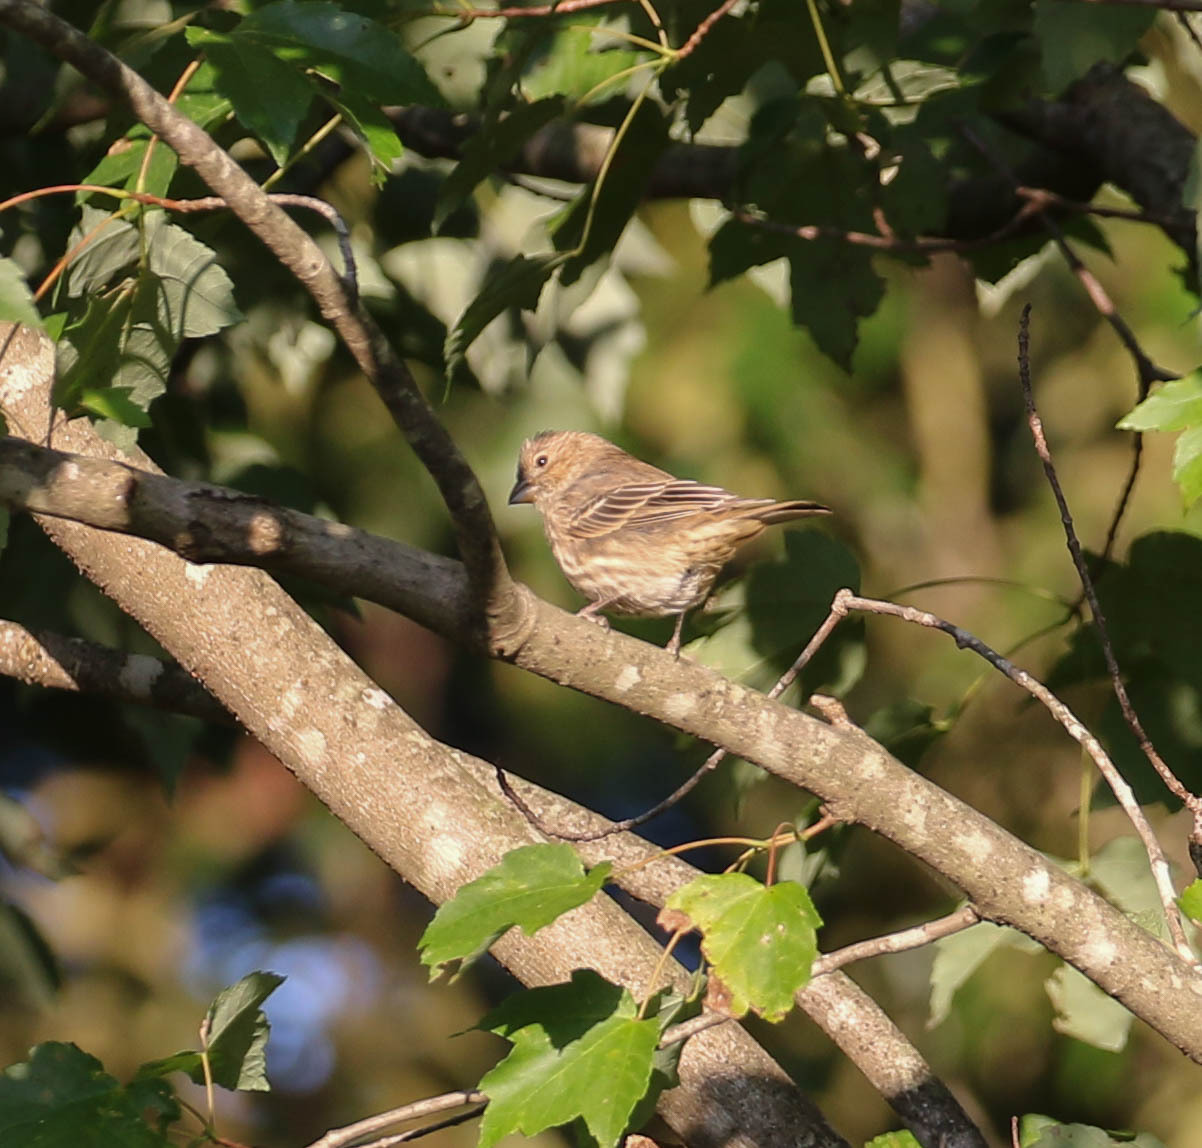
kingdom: Animalia
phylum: Chordata
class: Aves
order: Passeriformes
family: Fringillidae
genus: Haemorhous
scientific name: Haemorhous mexicanus
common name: House finch
